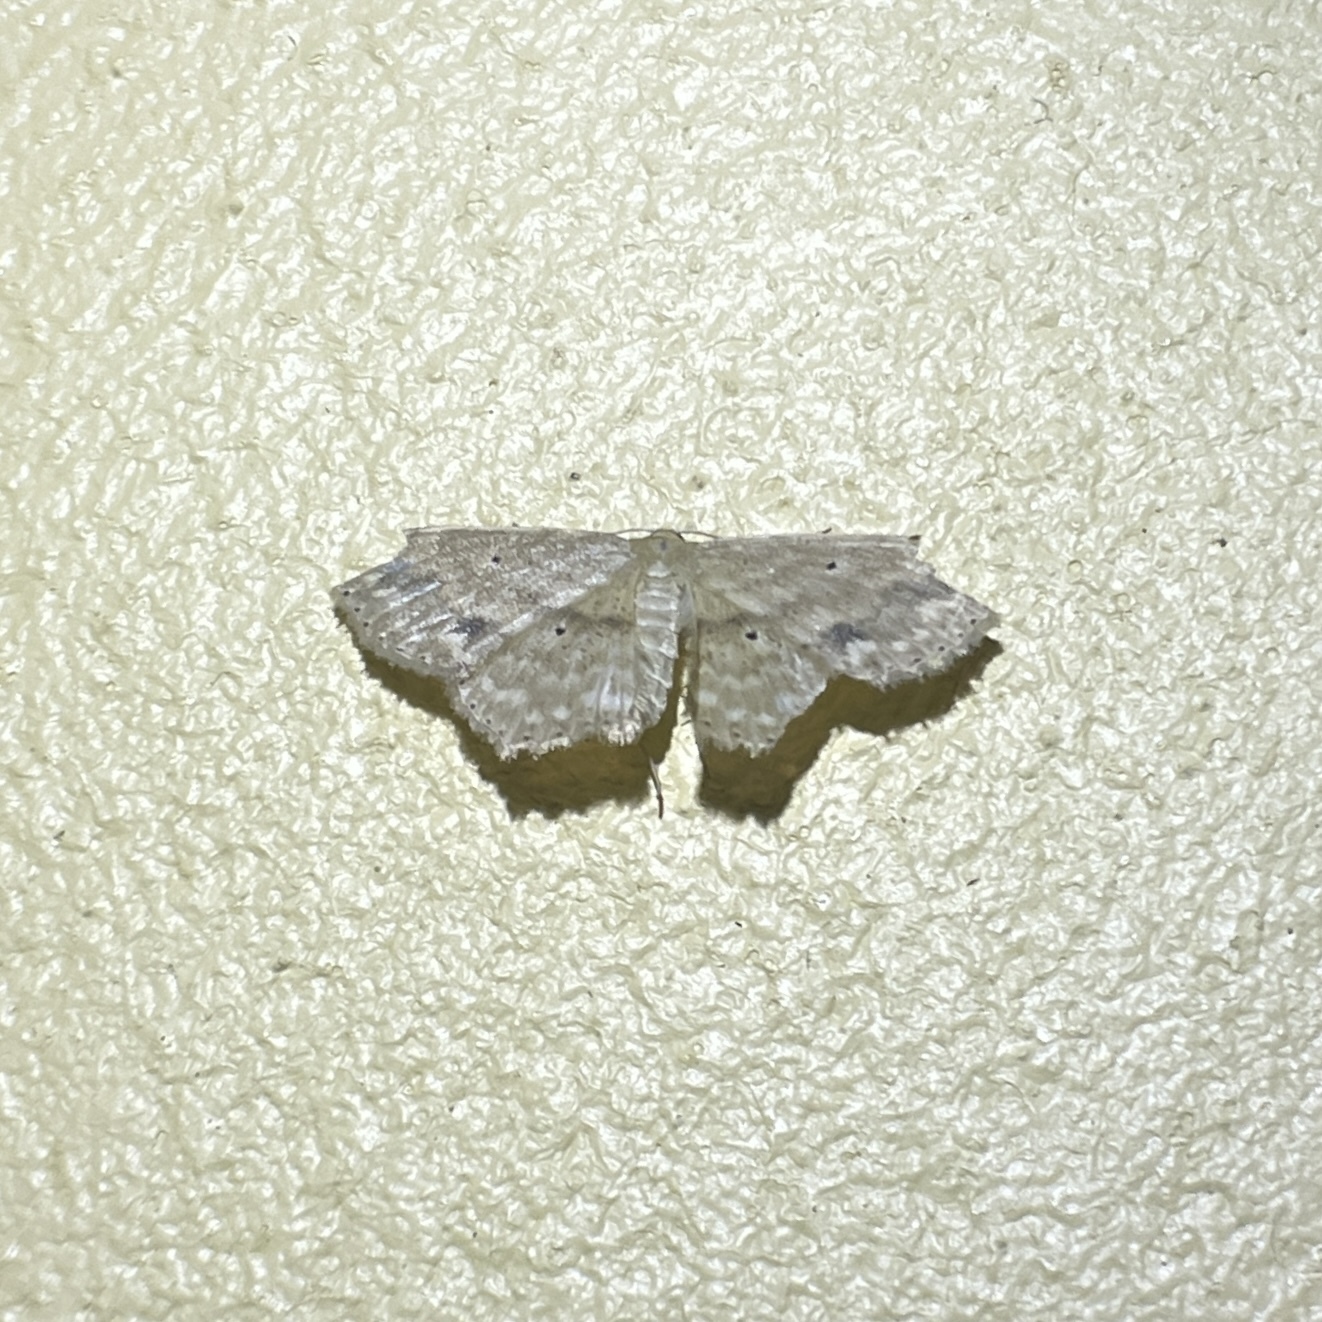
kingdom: Animalia
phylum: Arthropoda
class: Insecta
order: Lepidoptera
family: Geometridae
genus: Scopula
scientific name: Scopula subquadrata
